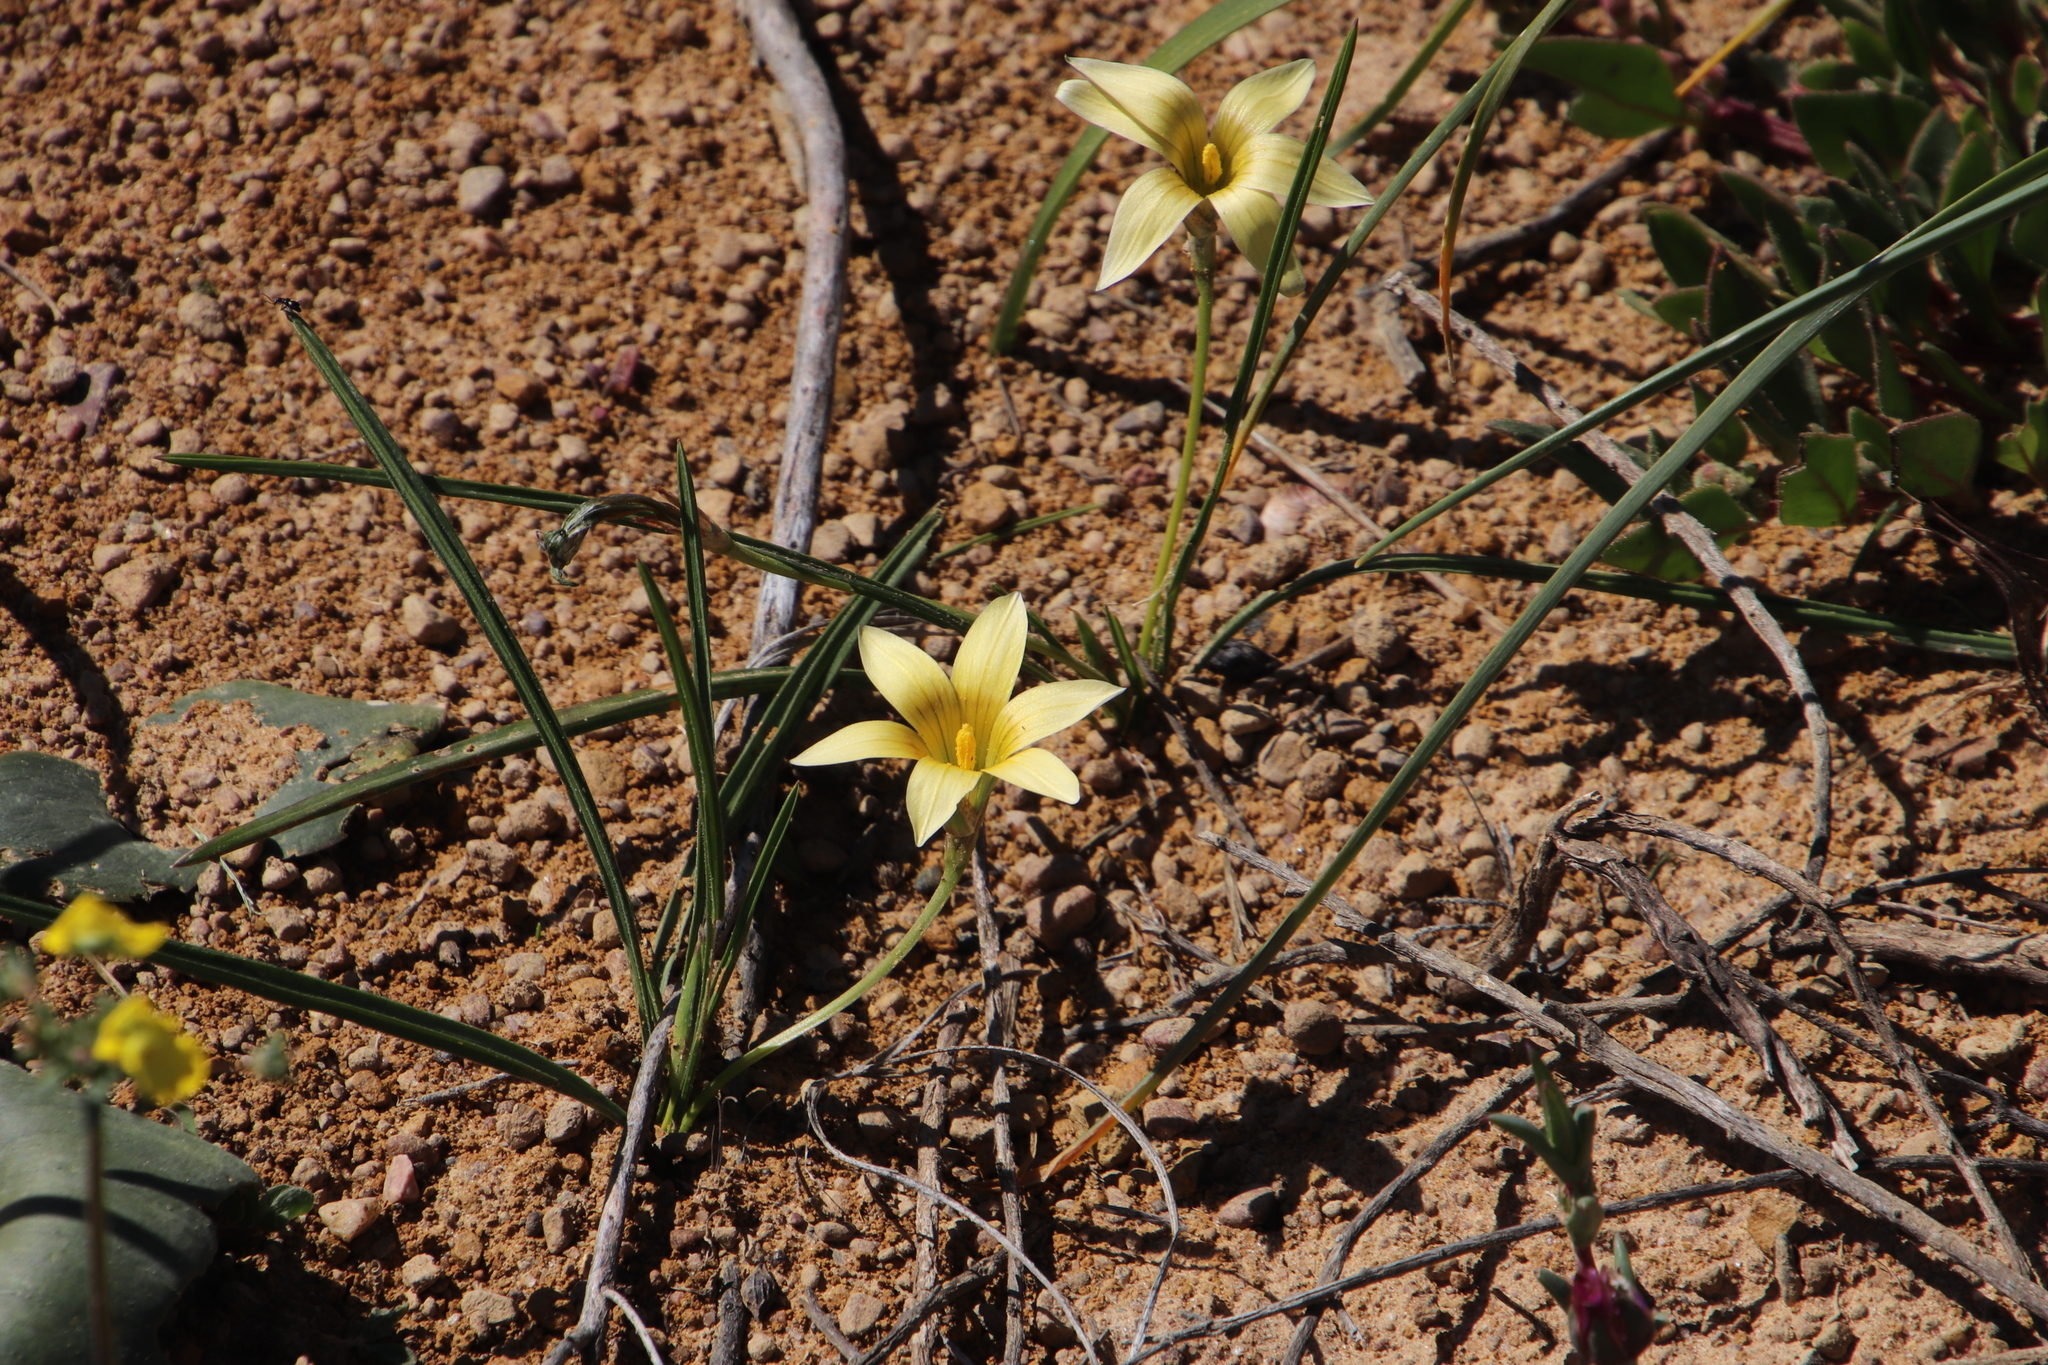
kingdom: Plantae
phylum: Tracheophyta
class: Liliopsida
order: Asparagales
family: Iridaceae
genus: Romulea
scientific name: Romulea hirta
